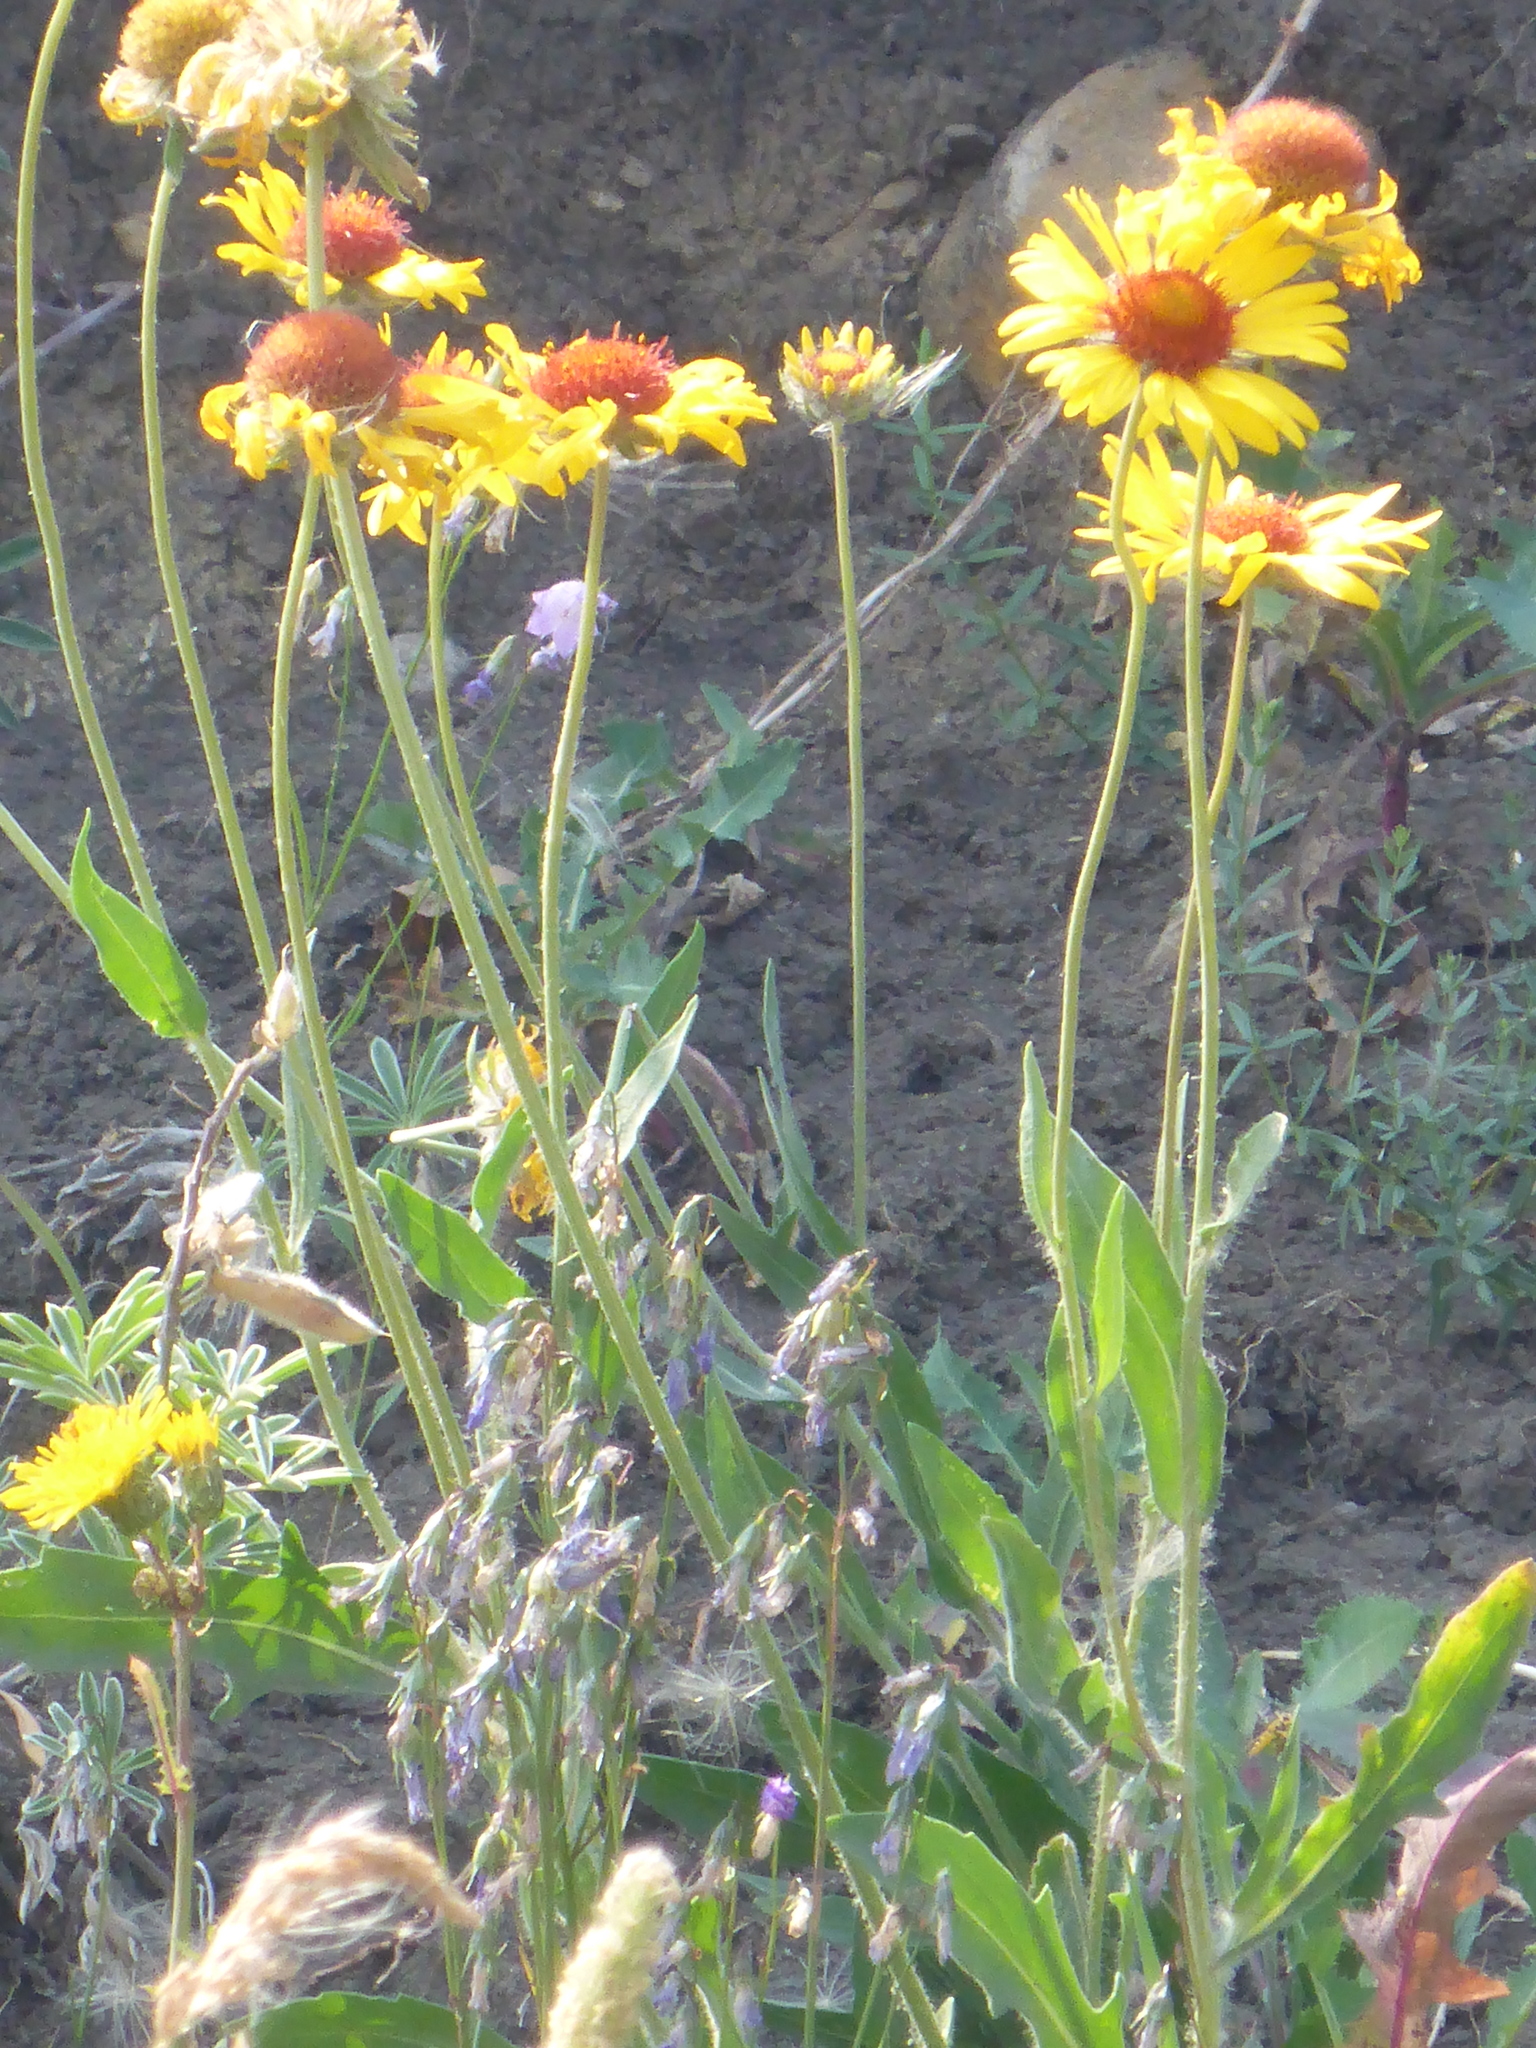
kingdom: Plantae
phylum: Tracheophyta
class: Magnoliopsida
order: Asterales
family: Asteraceae
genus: Gaillardia
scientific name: Gaillardia aristata
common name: Blanket-flower
